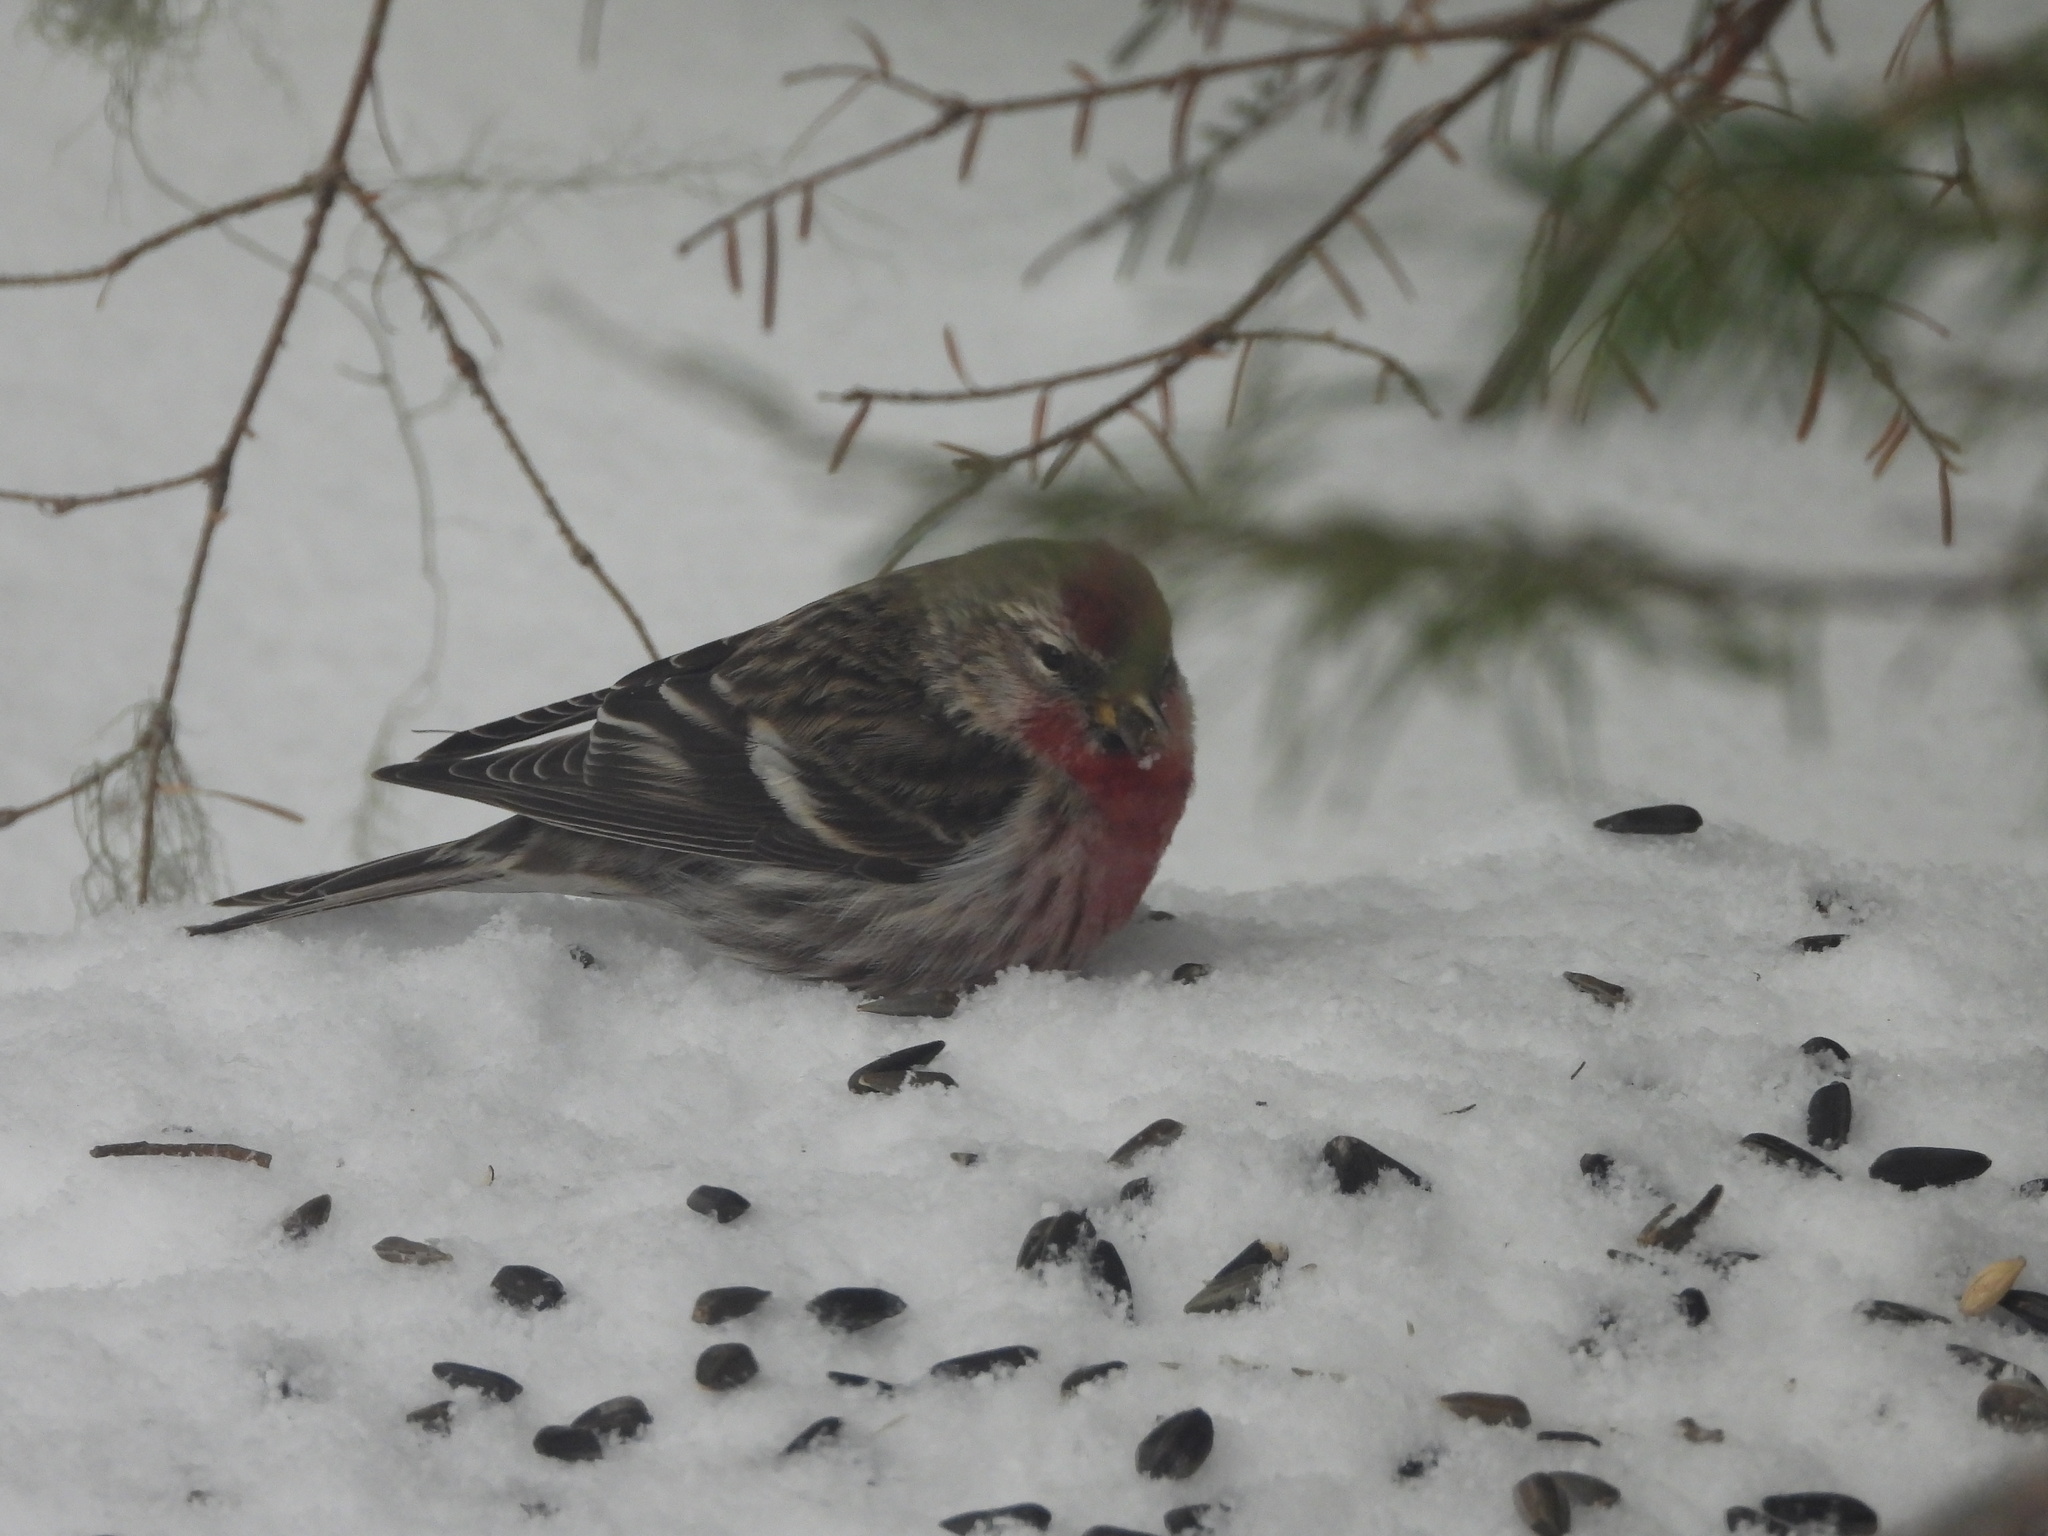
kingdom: Animalia
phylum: Chordata
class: Aves
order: Passeriformes
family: Fringillidae
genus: Acanthis
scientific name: Acanthis flammea
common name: Common redpoll
